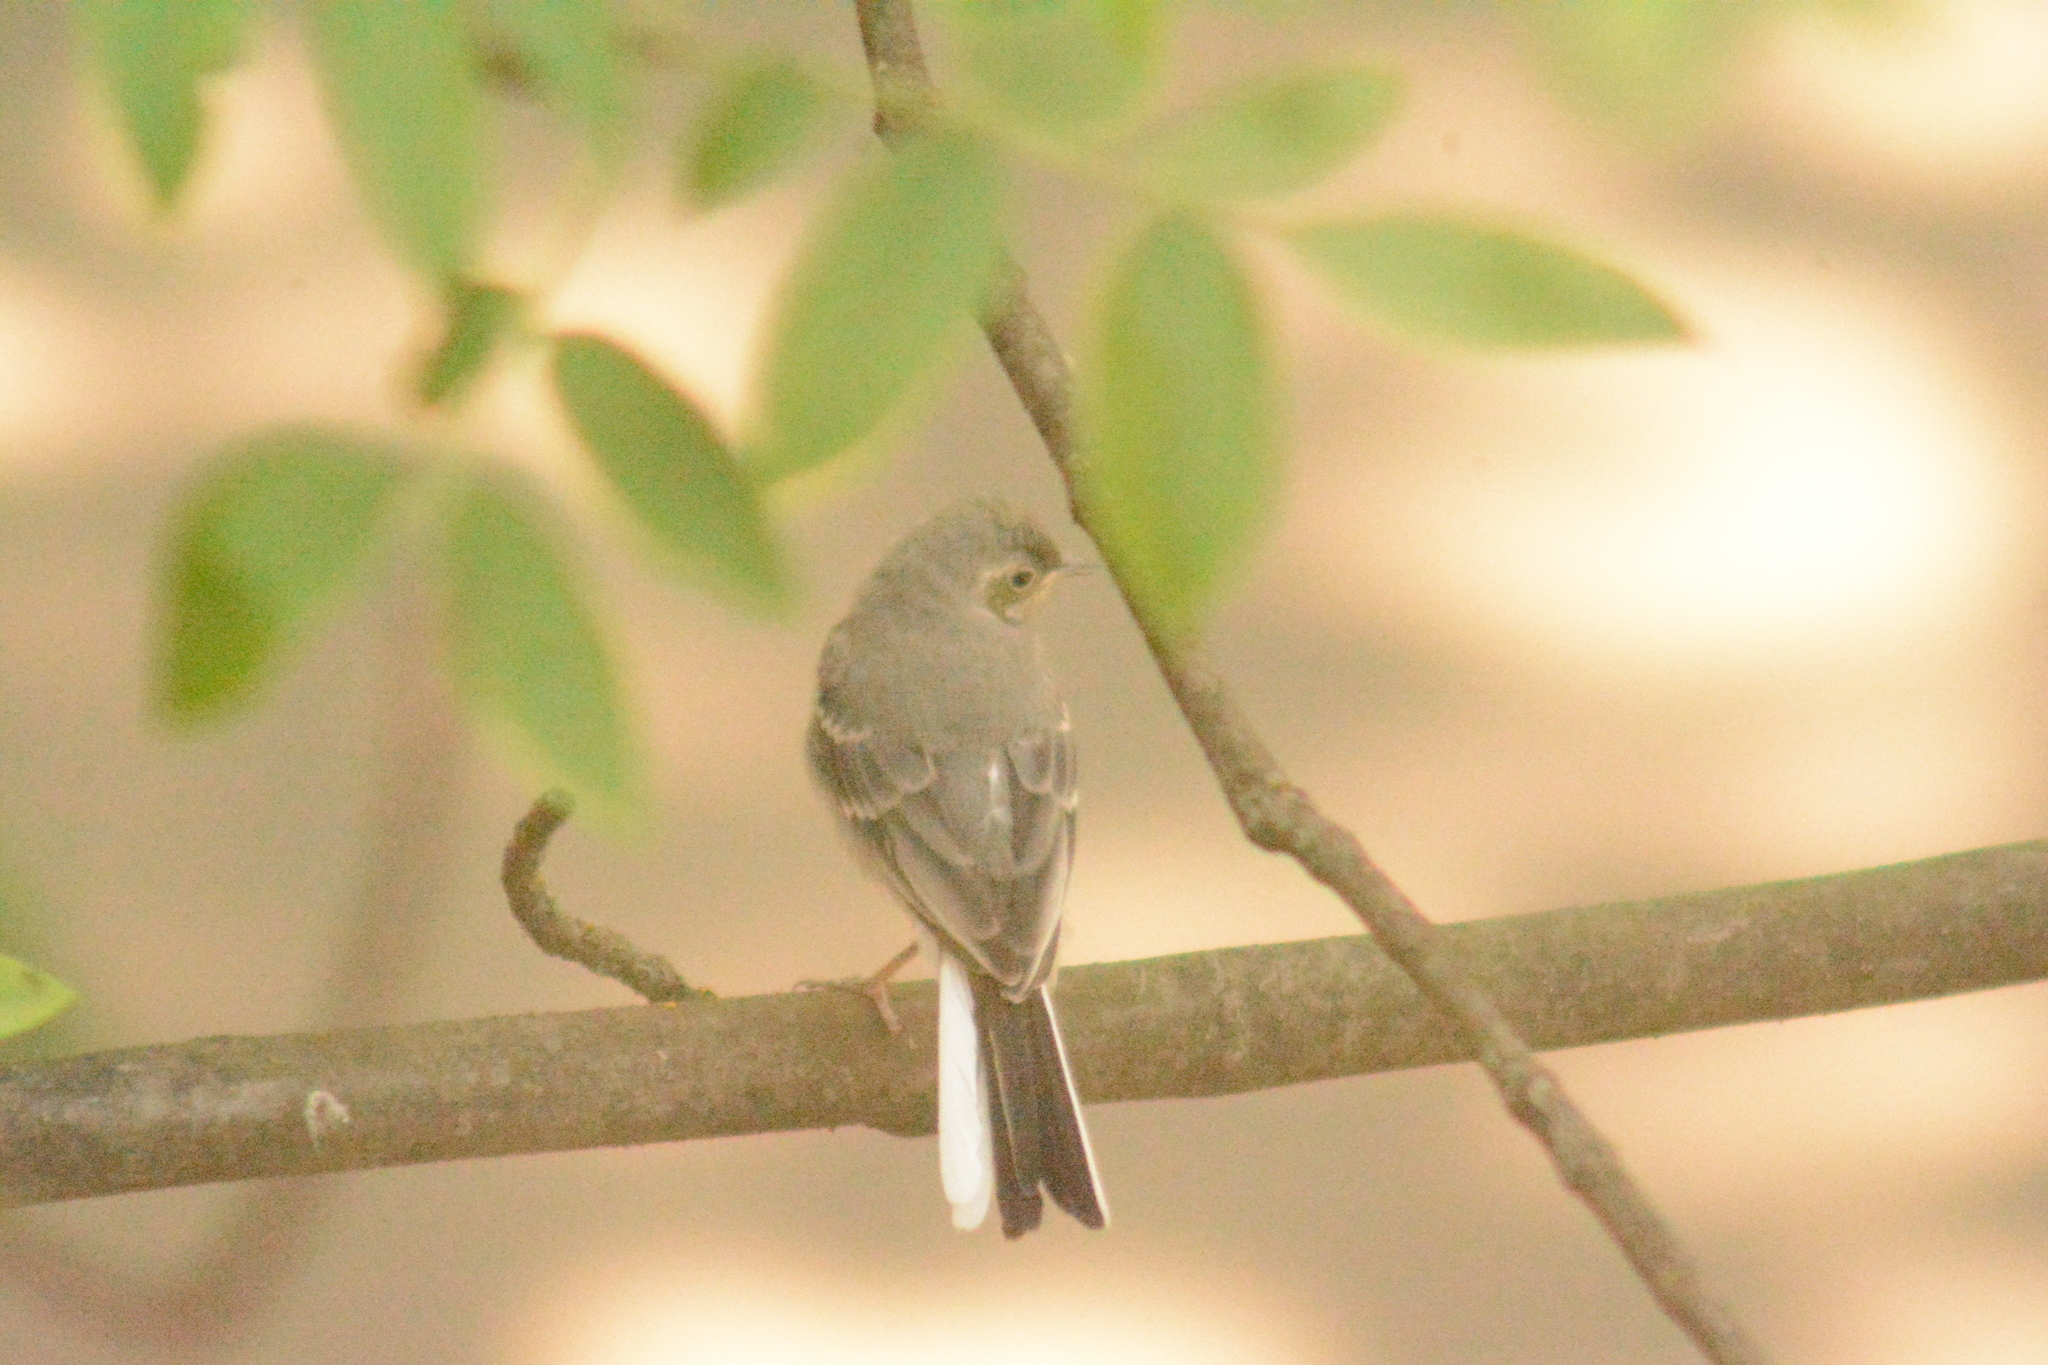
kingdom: Animalia
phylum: Chordata
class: Aves
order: Passeriformes
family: Motacillidae
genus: Motacilla
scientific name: Motacilla alba
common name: White wagtail
